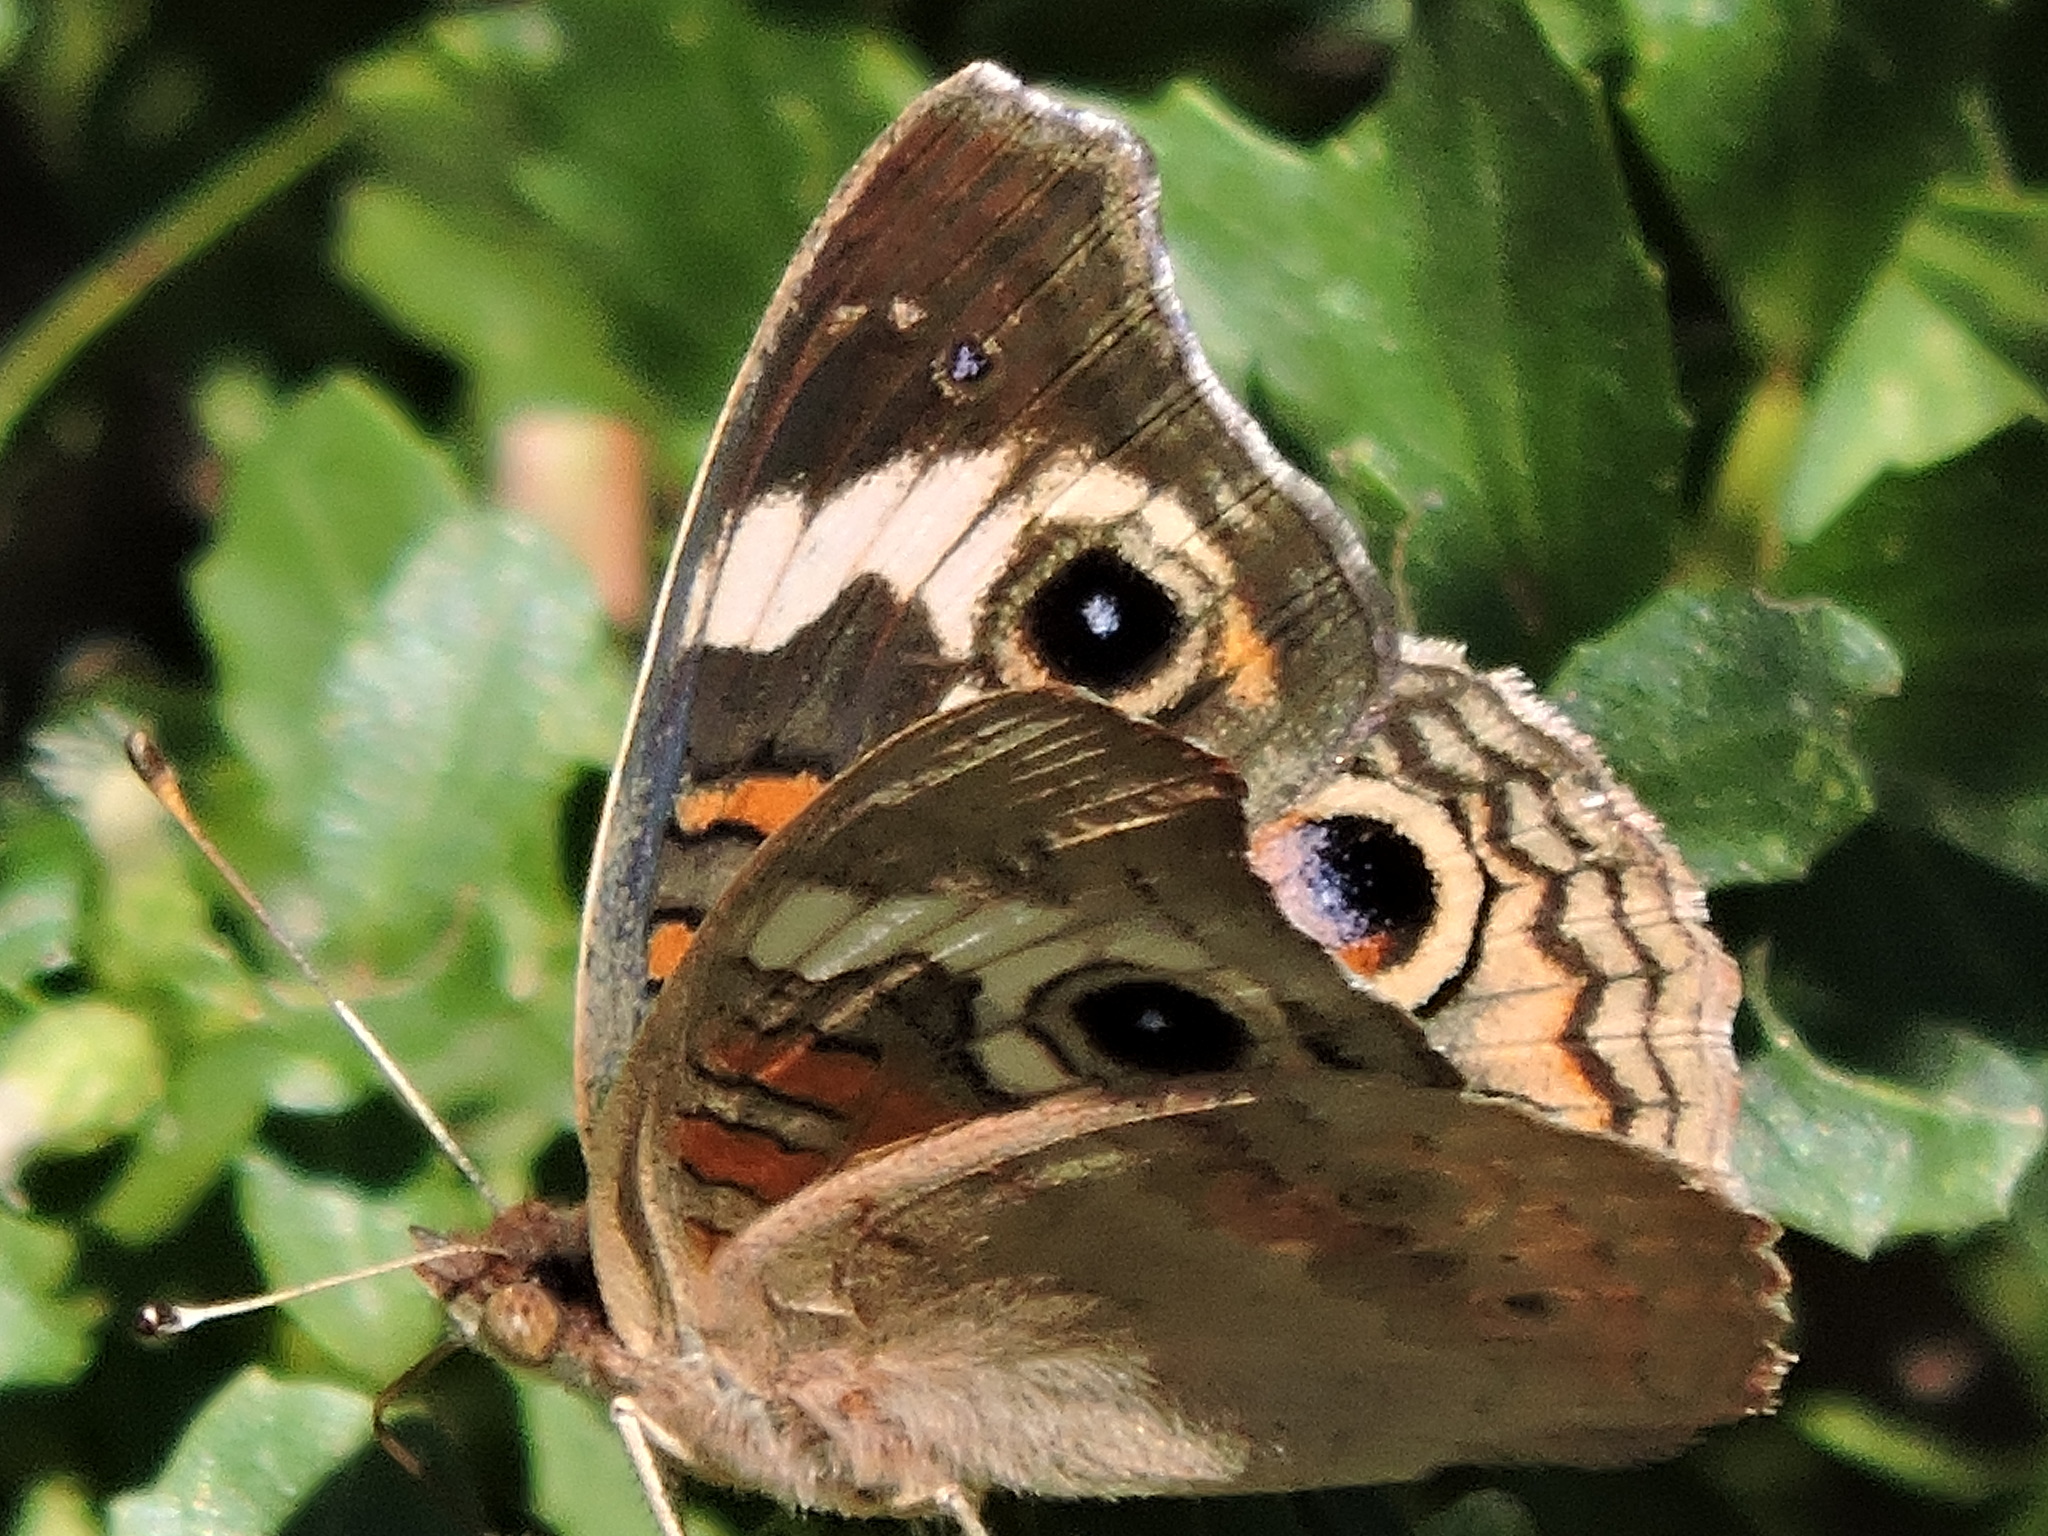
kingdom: Animalia
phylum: Arthropoda
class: Insecta
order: Lepidoptera
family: Nymphalidae
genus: Junonia
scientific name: Junonia grisea
